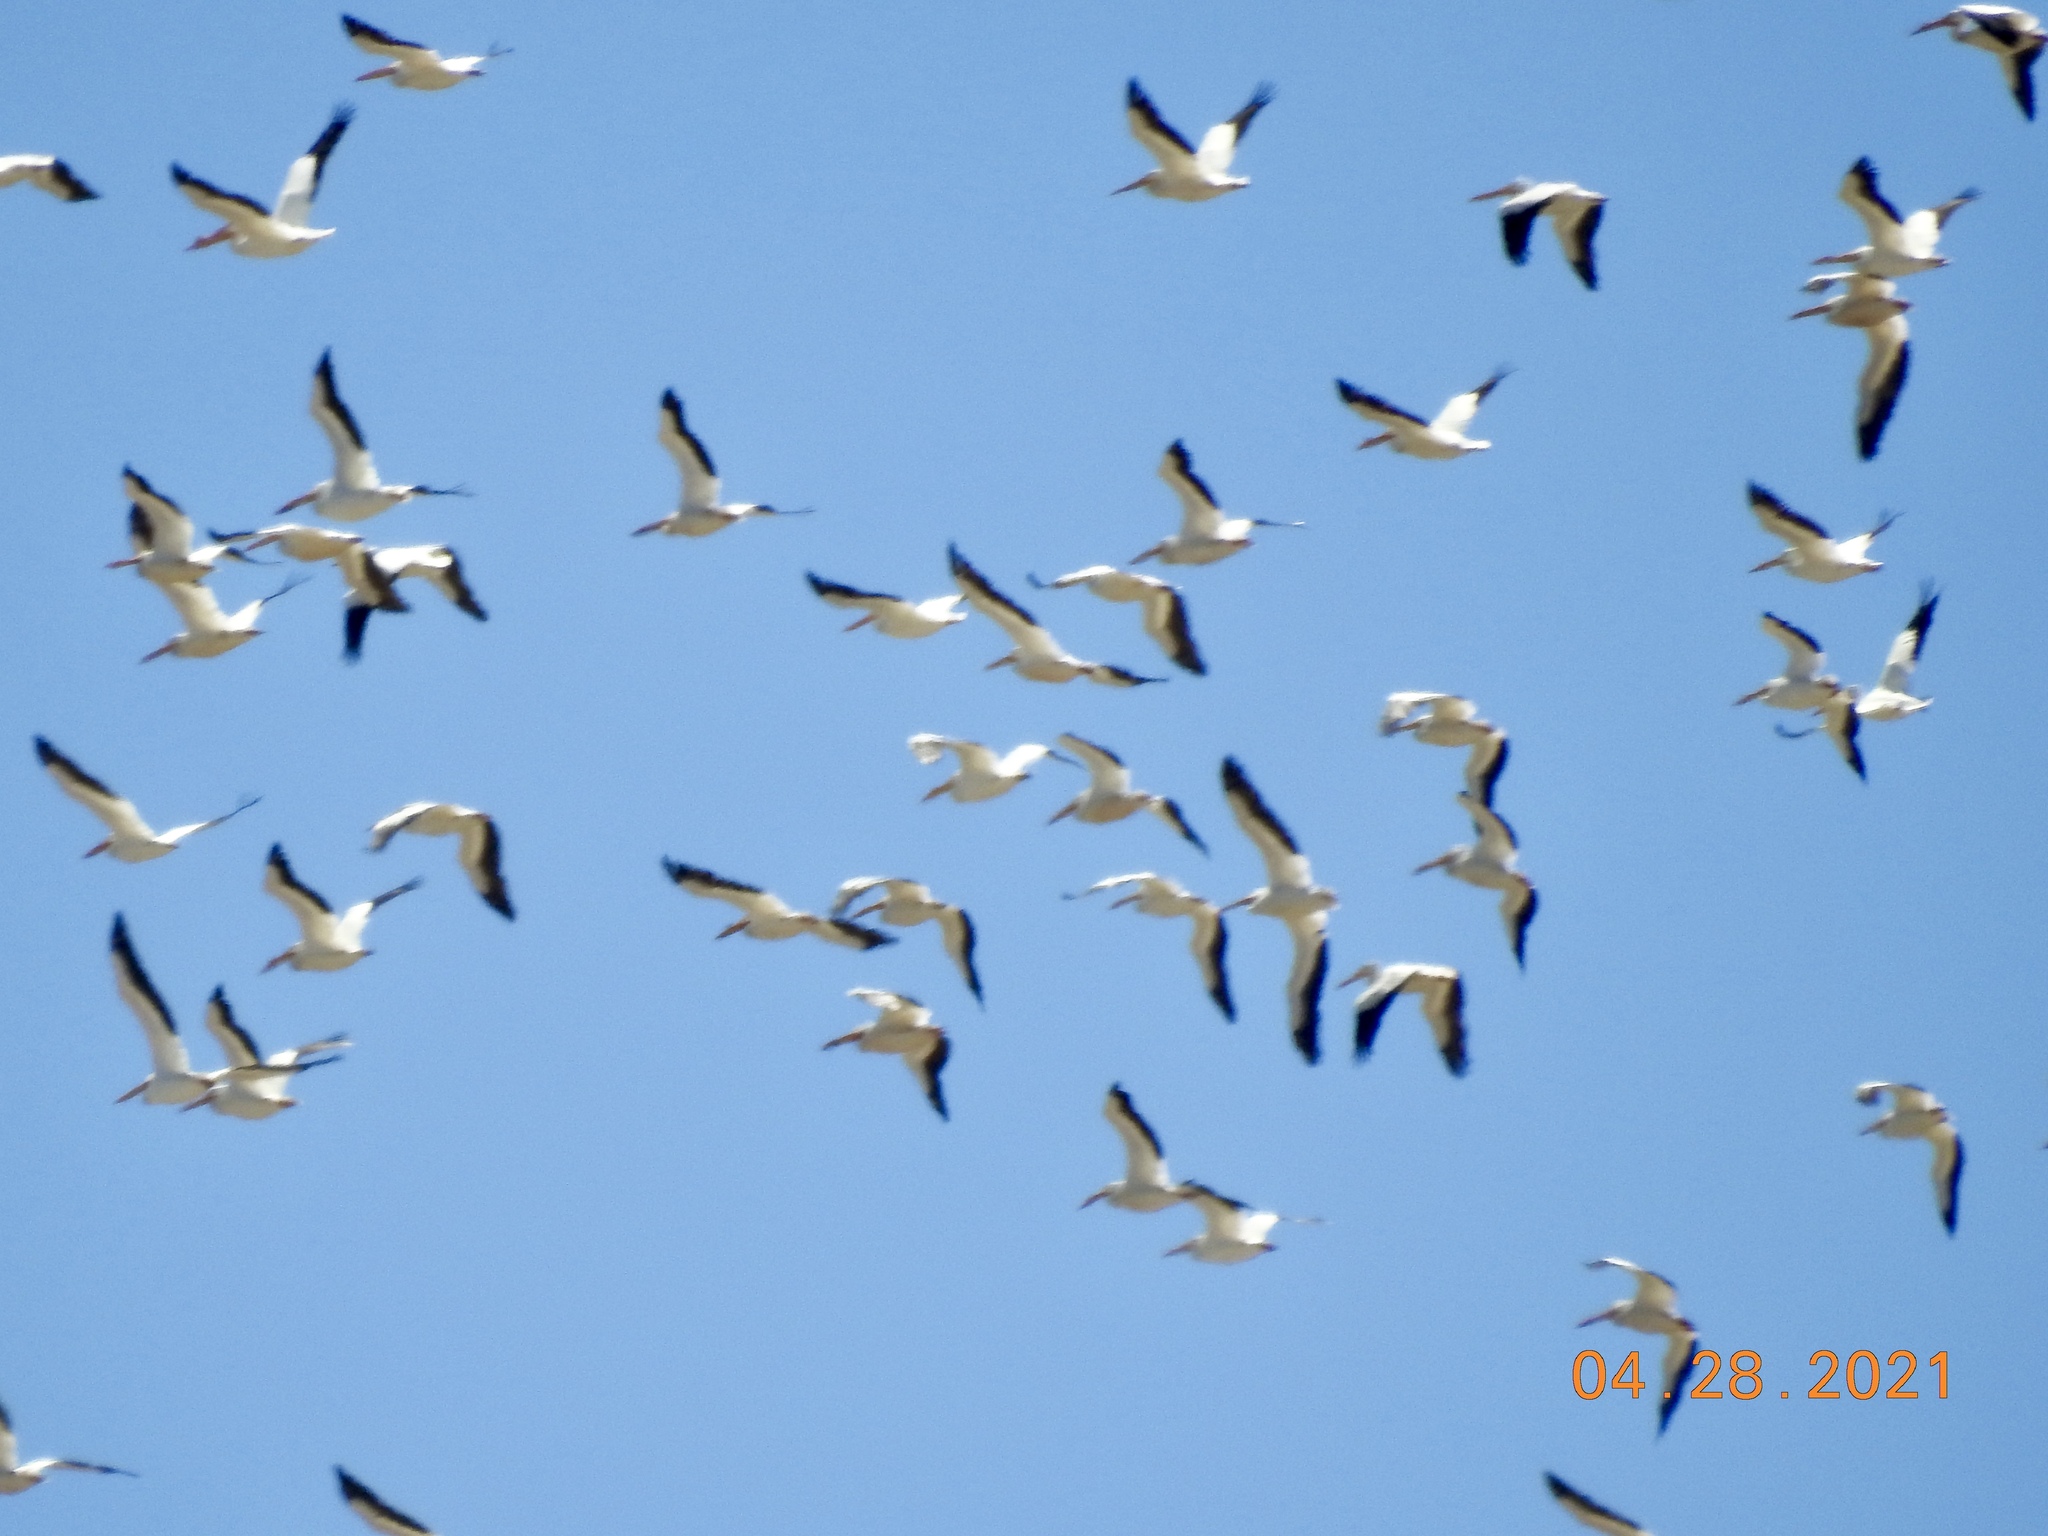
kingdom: Animalia
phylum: Chordata
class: Aves
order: Pelecaniformes
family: Pelecanidae
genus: Pelecanus
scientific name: Pelecanus erythrorhynchos
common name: American white pelican
